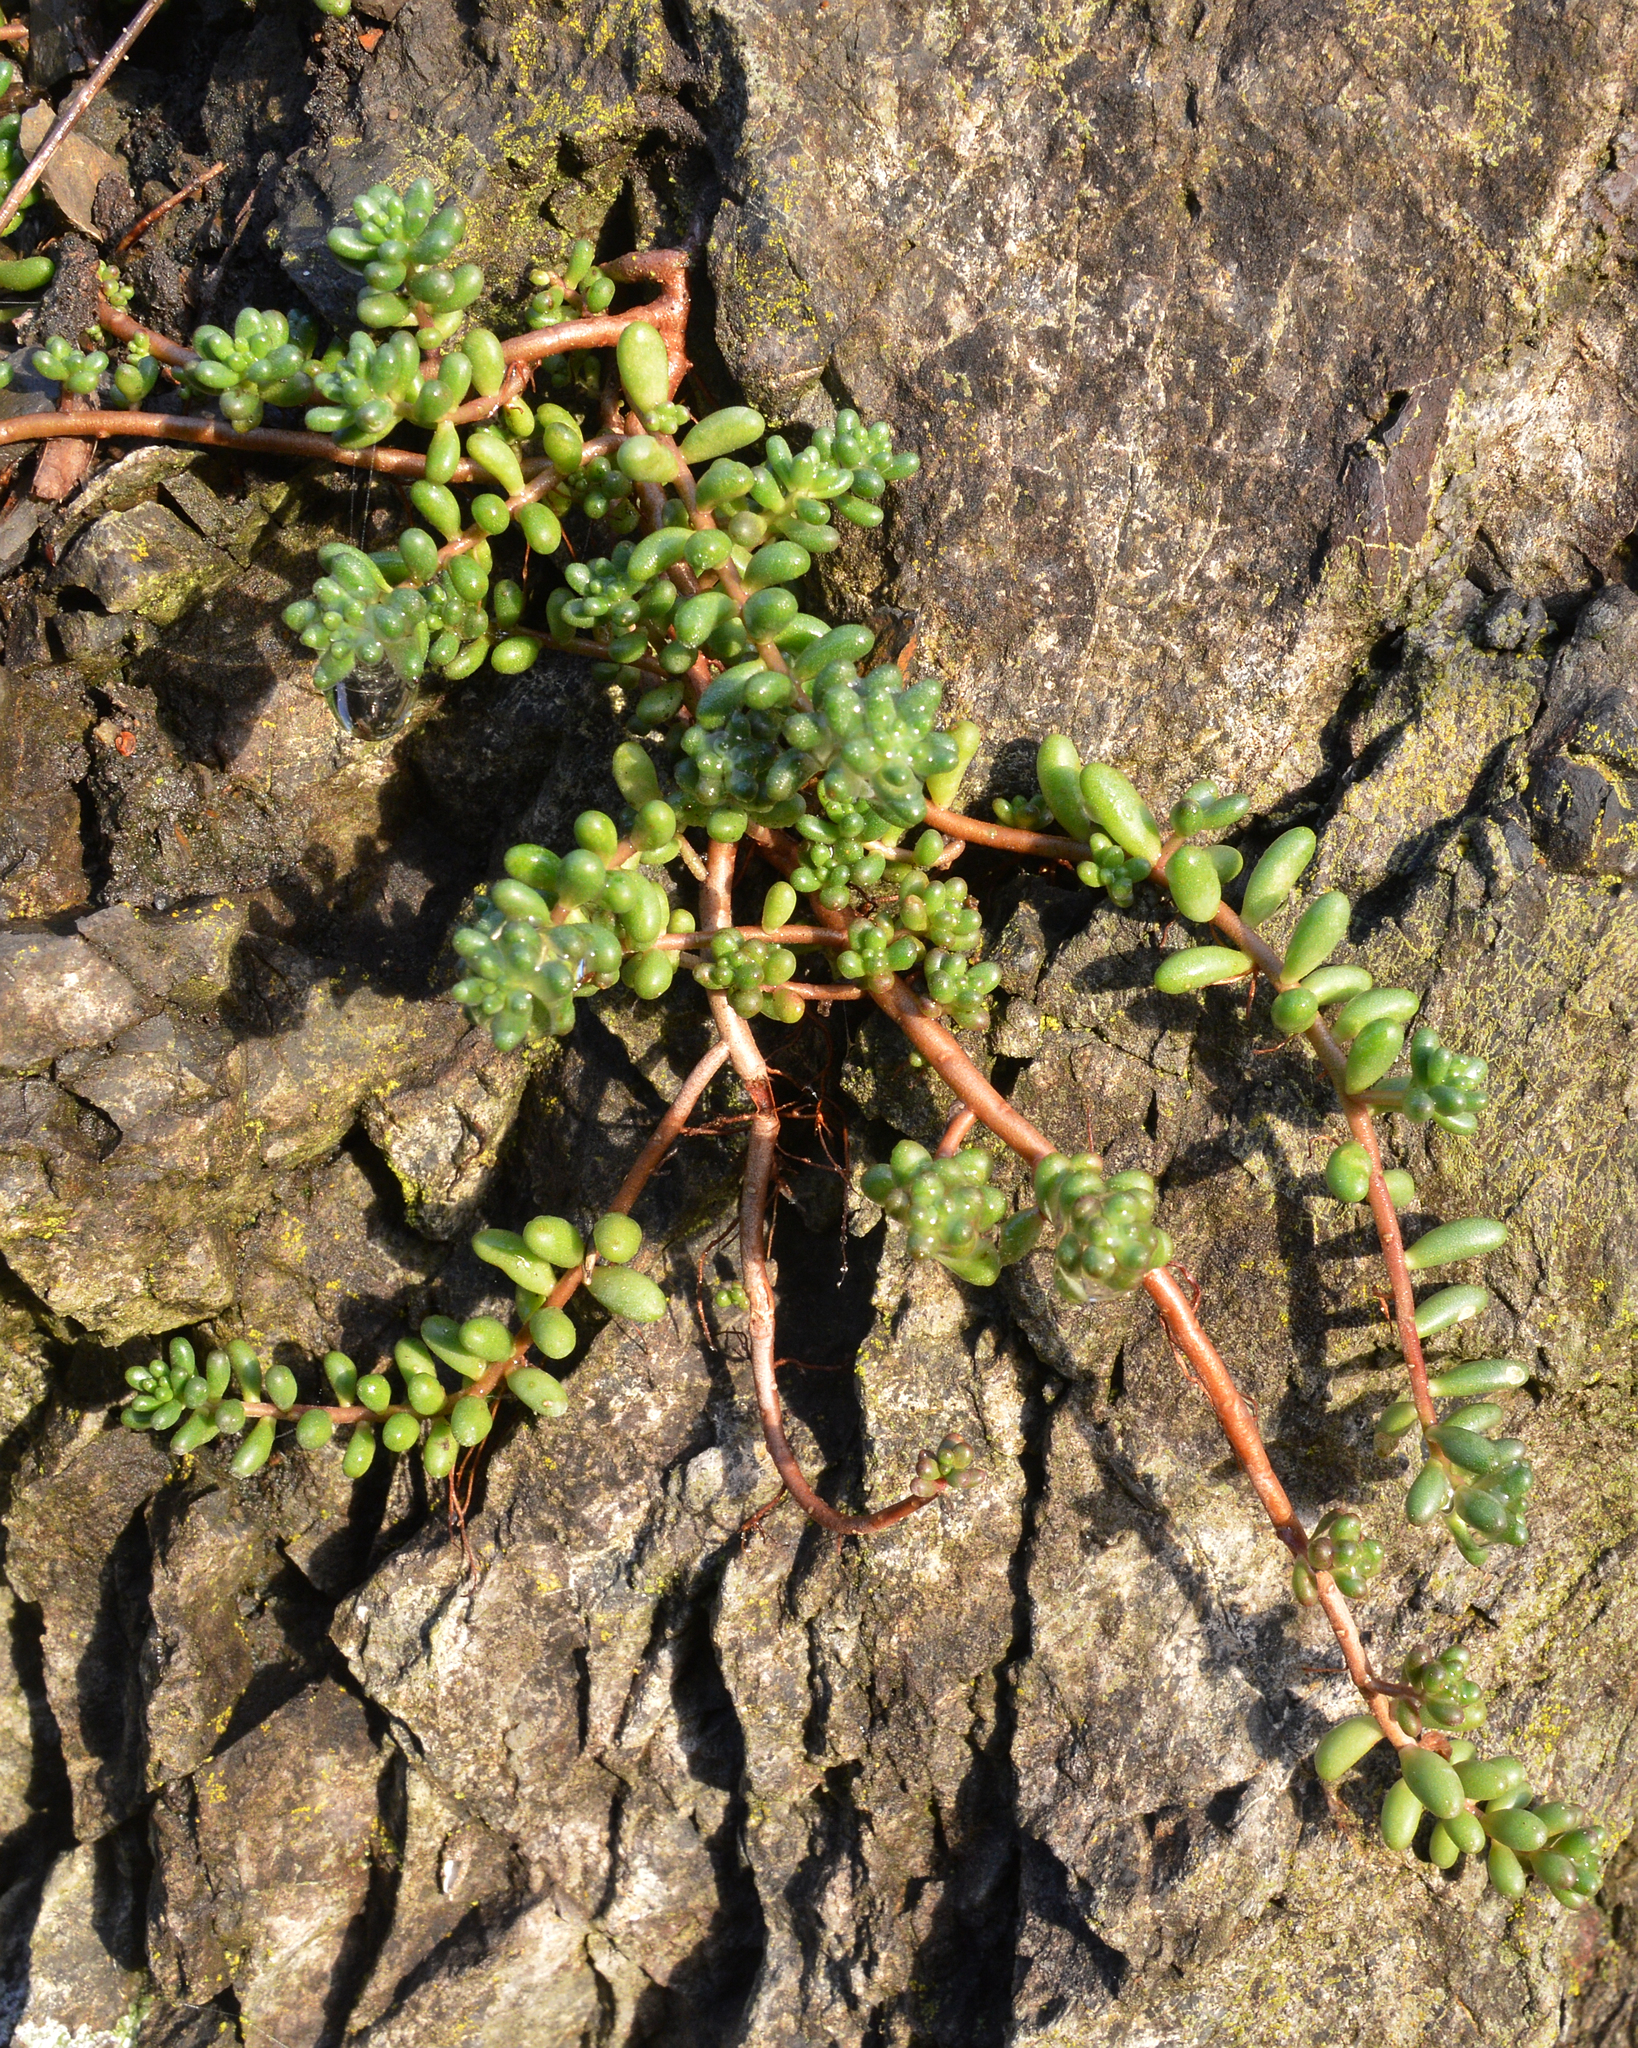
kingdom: Plantae
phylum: Tracheophyta
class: Magnoliopsida
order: Saxifragales
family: Crassulaceae
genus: Sedum
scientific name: Sedum album
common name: White stonecrop
